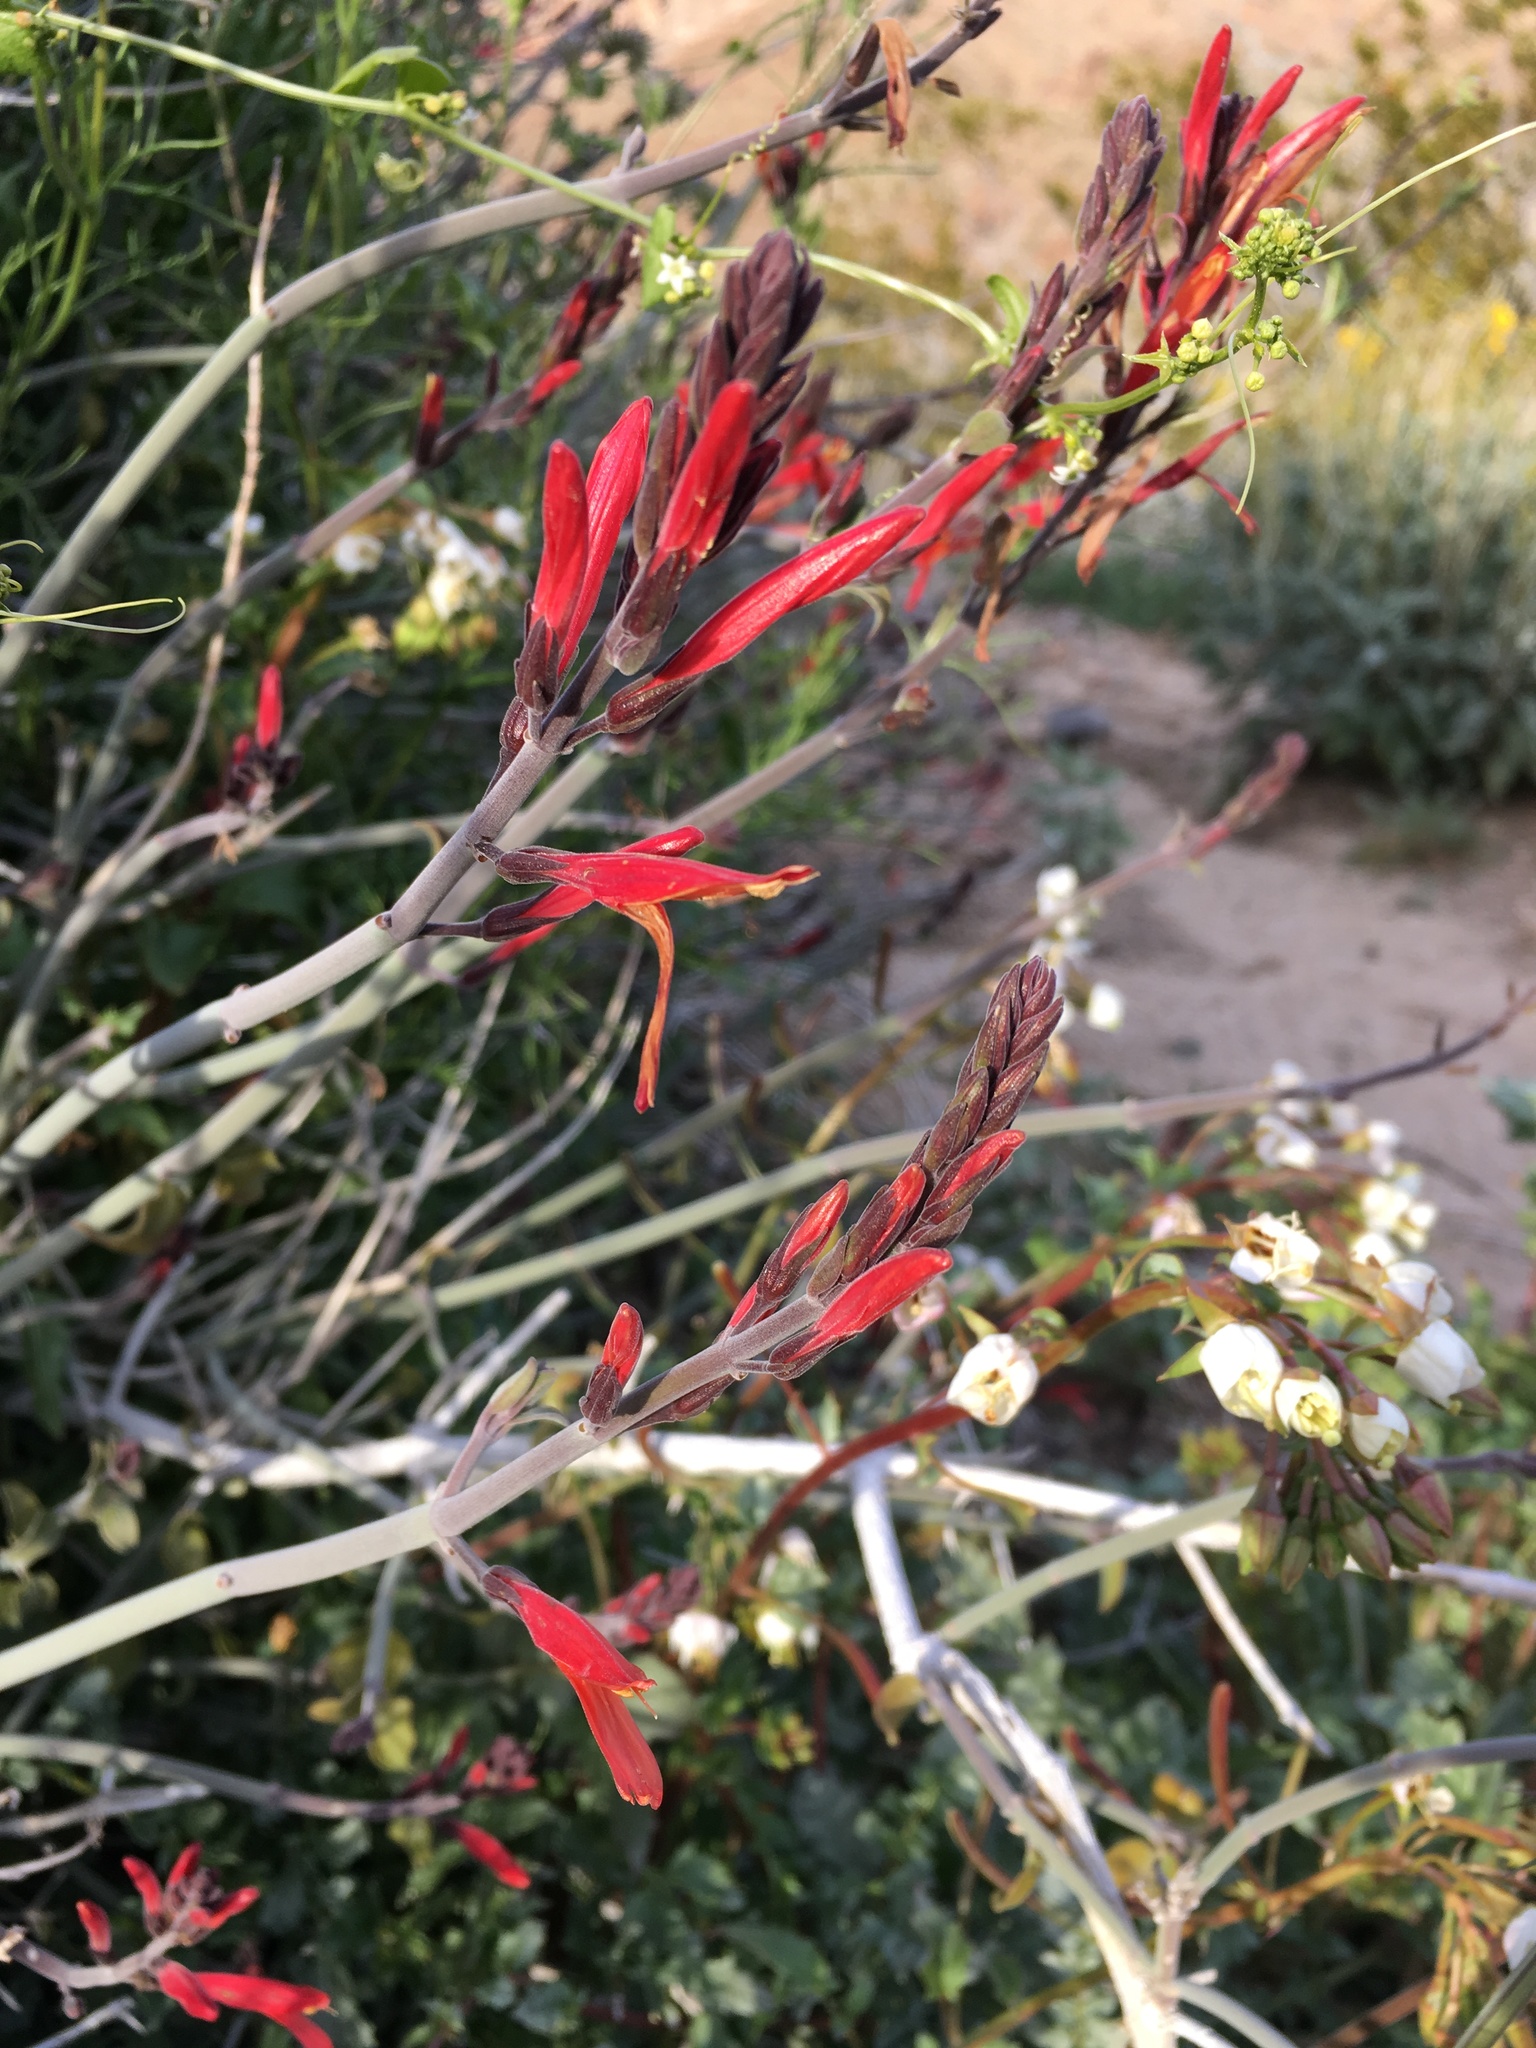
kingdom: Plantae
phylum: Tracheophyta
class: Magnoliopsida
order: Lamiales
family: Acanthaceae
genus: Justicia
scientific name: Justicia californica
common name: Chuparosa-honeysuckle
